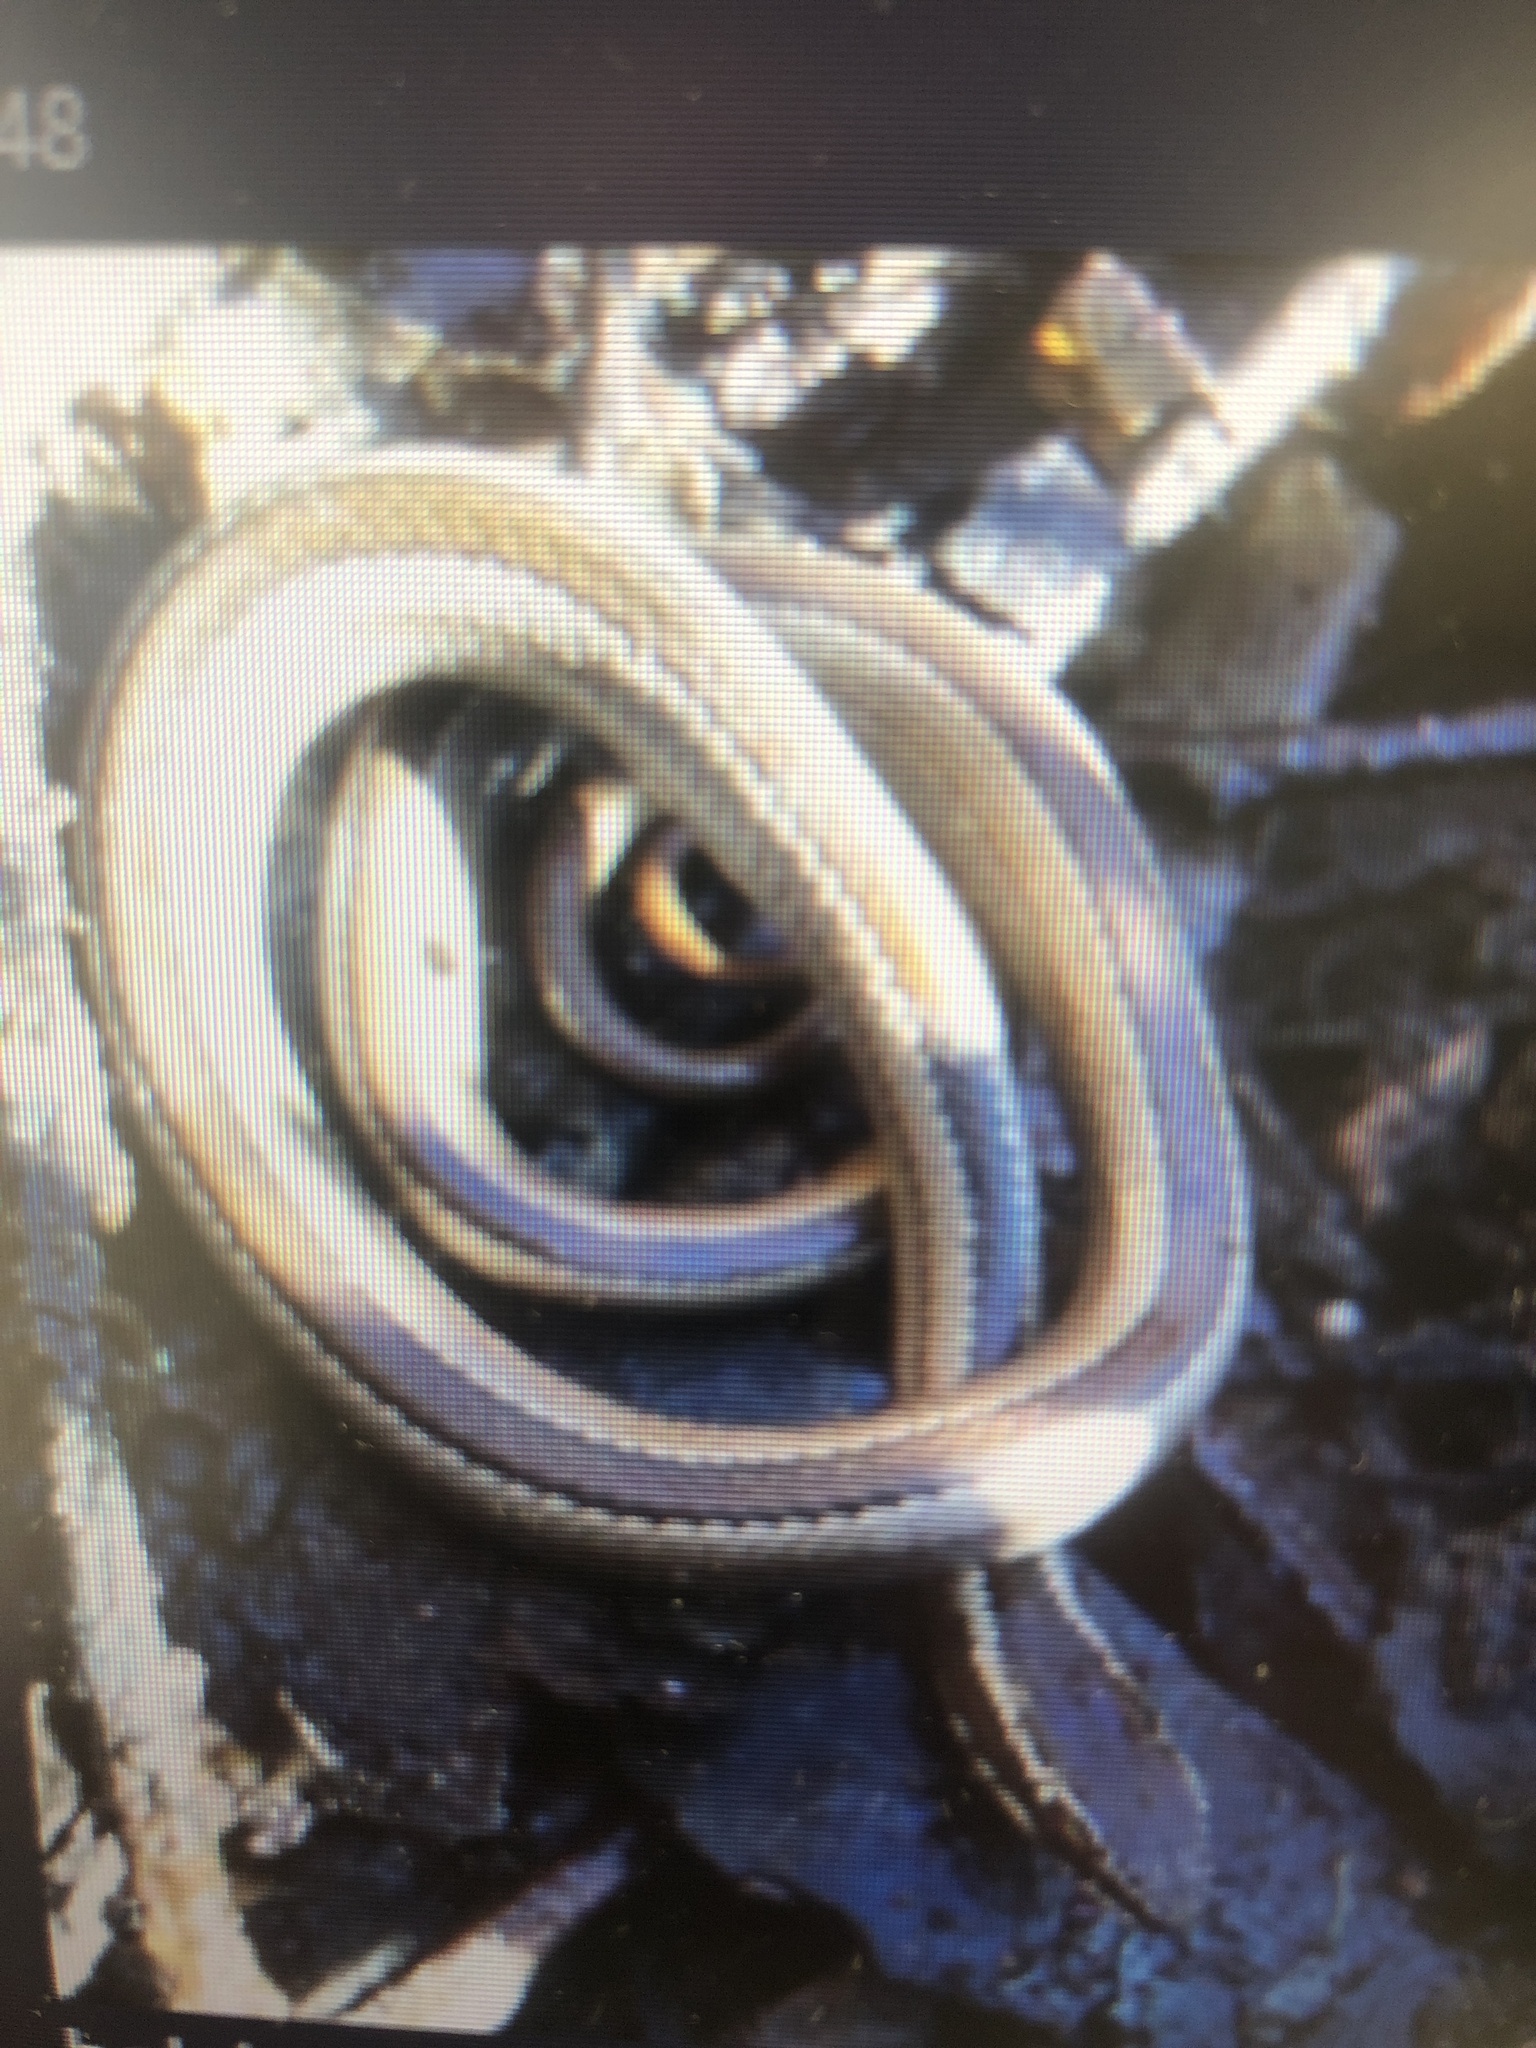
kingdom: Animalia
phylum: Chordata
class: Squamata
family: Colubridae
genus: Philodryas
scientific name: Philodryas chamissonis
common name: Chilean green racer
